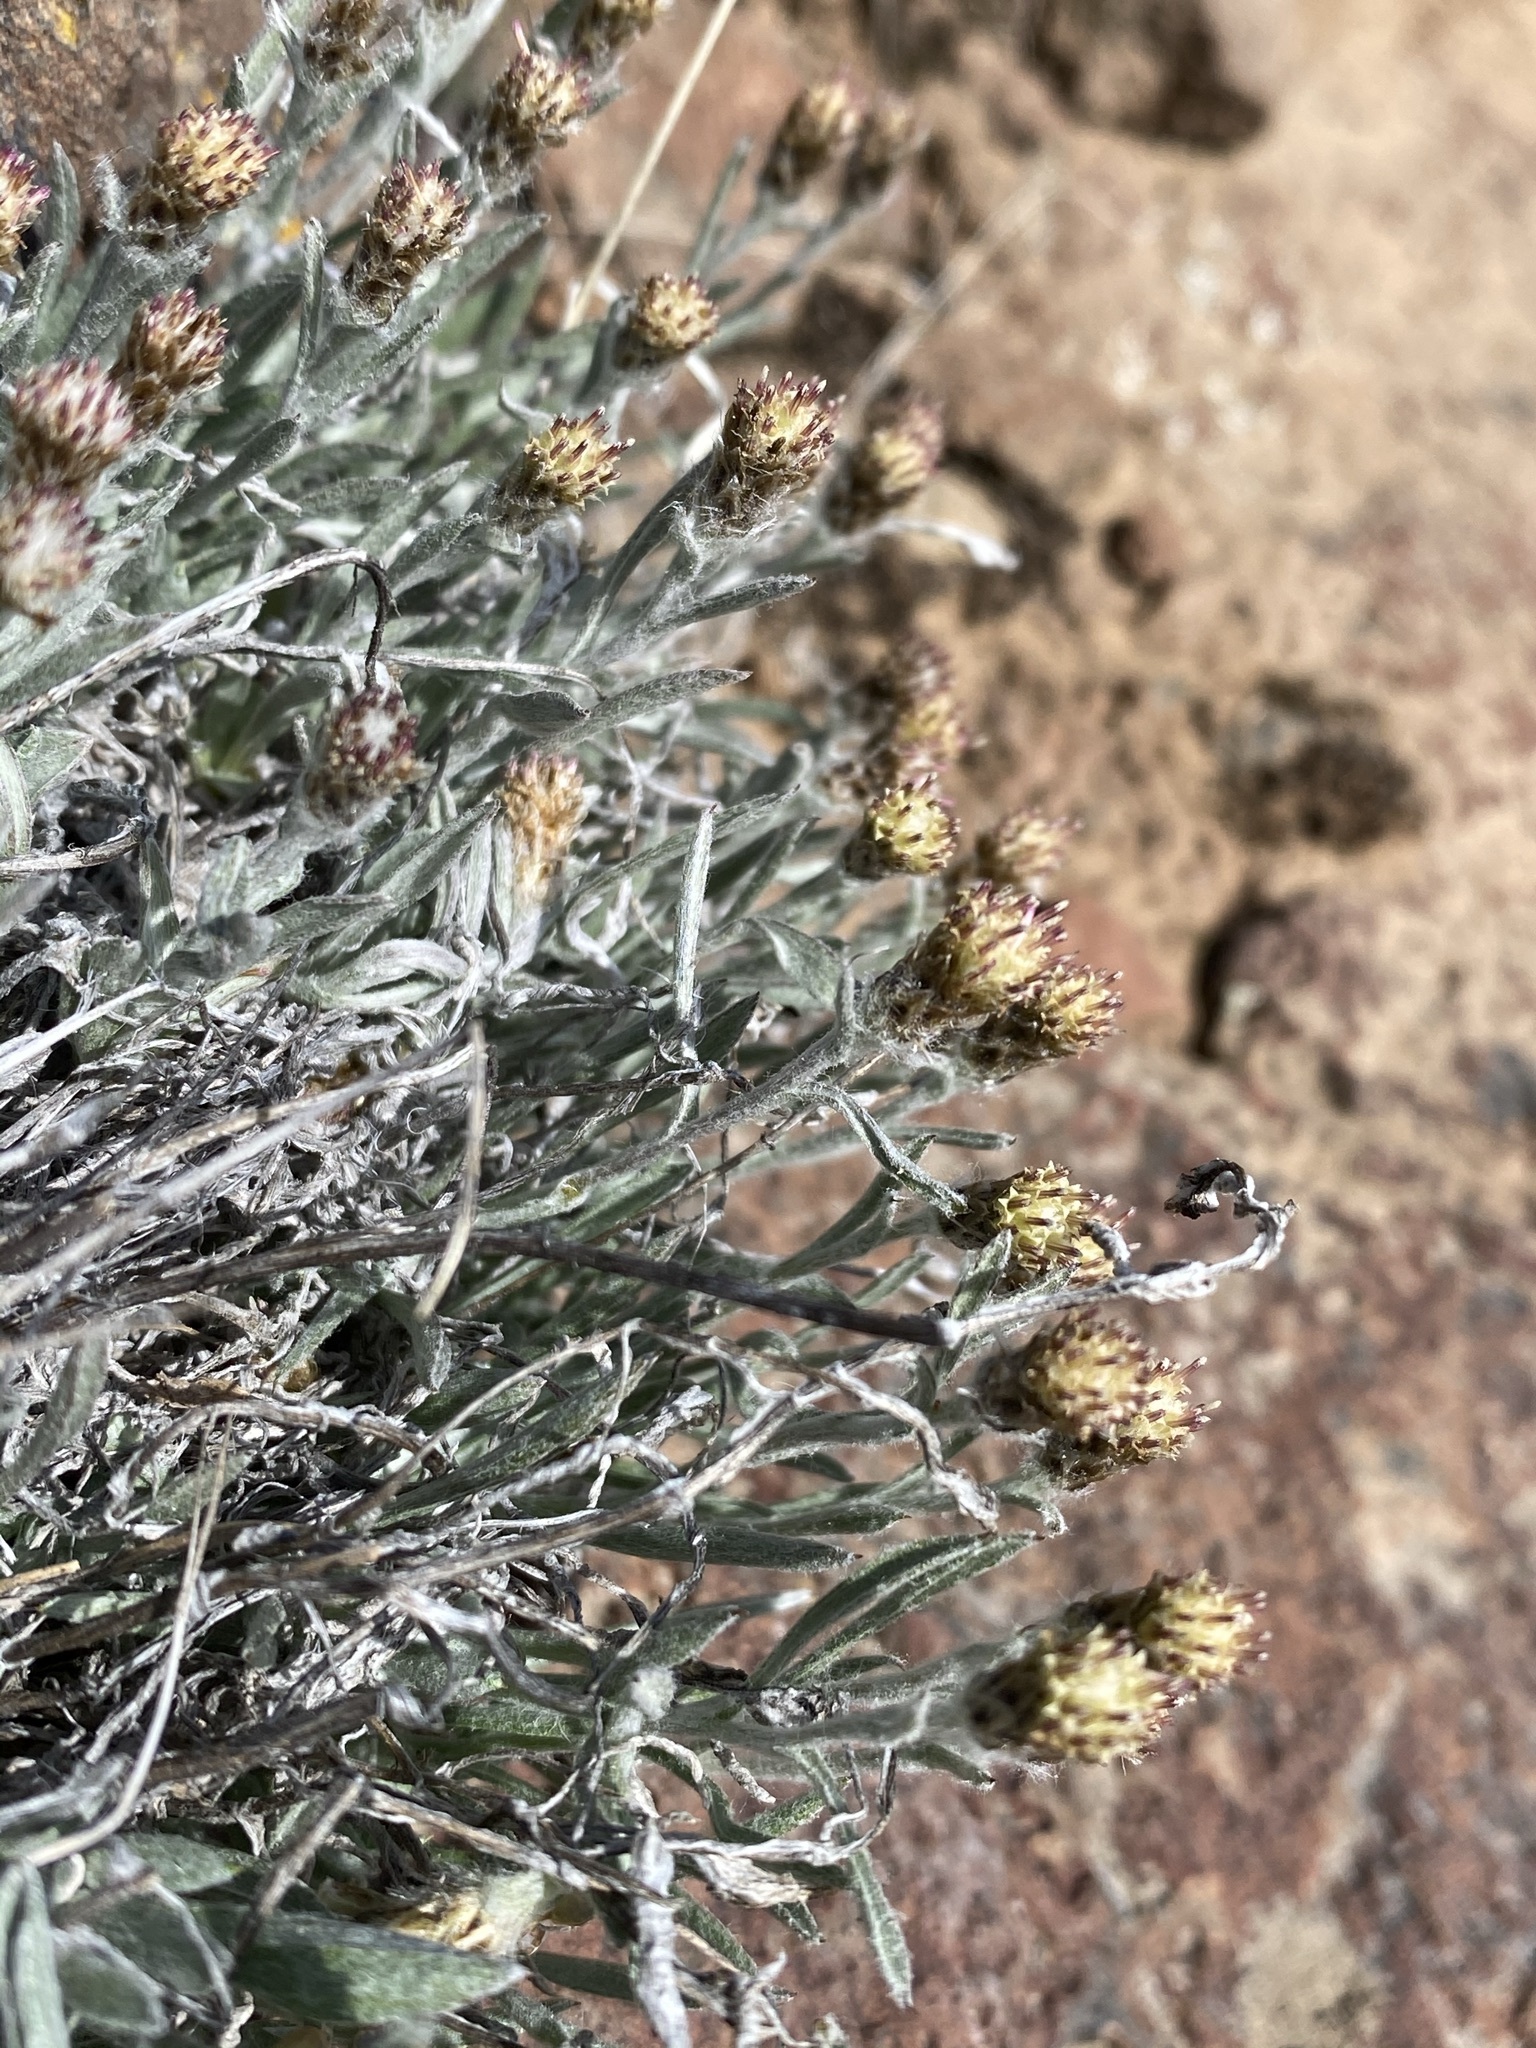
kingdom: Plantae
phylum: Tracheophyta
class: Magnoliopsida
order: Asterales
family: Asteraceae
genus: Antennaria
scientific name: Antennaria dimorpha
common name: Cushion pussytoes
